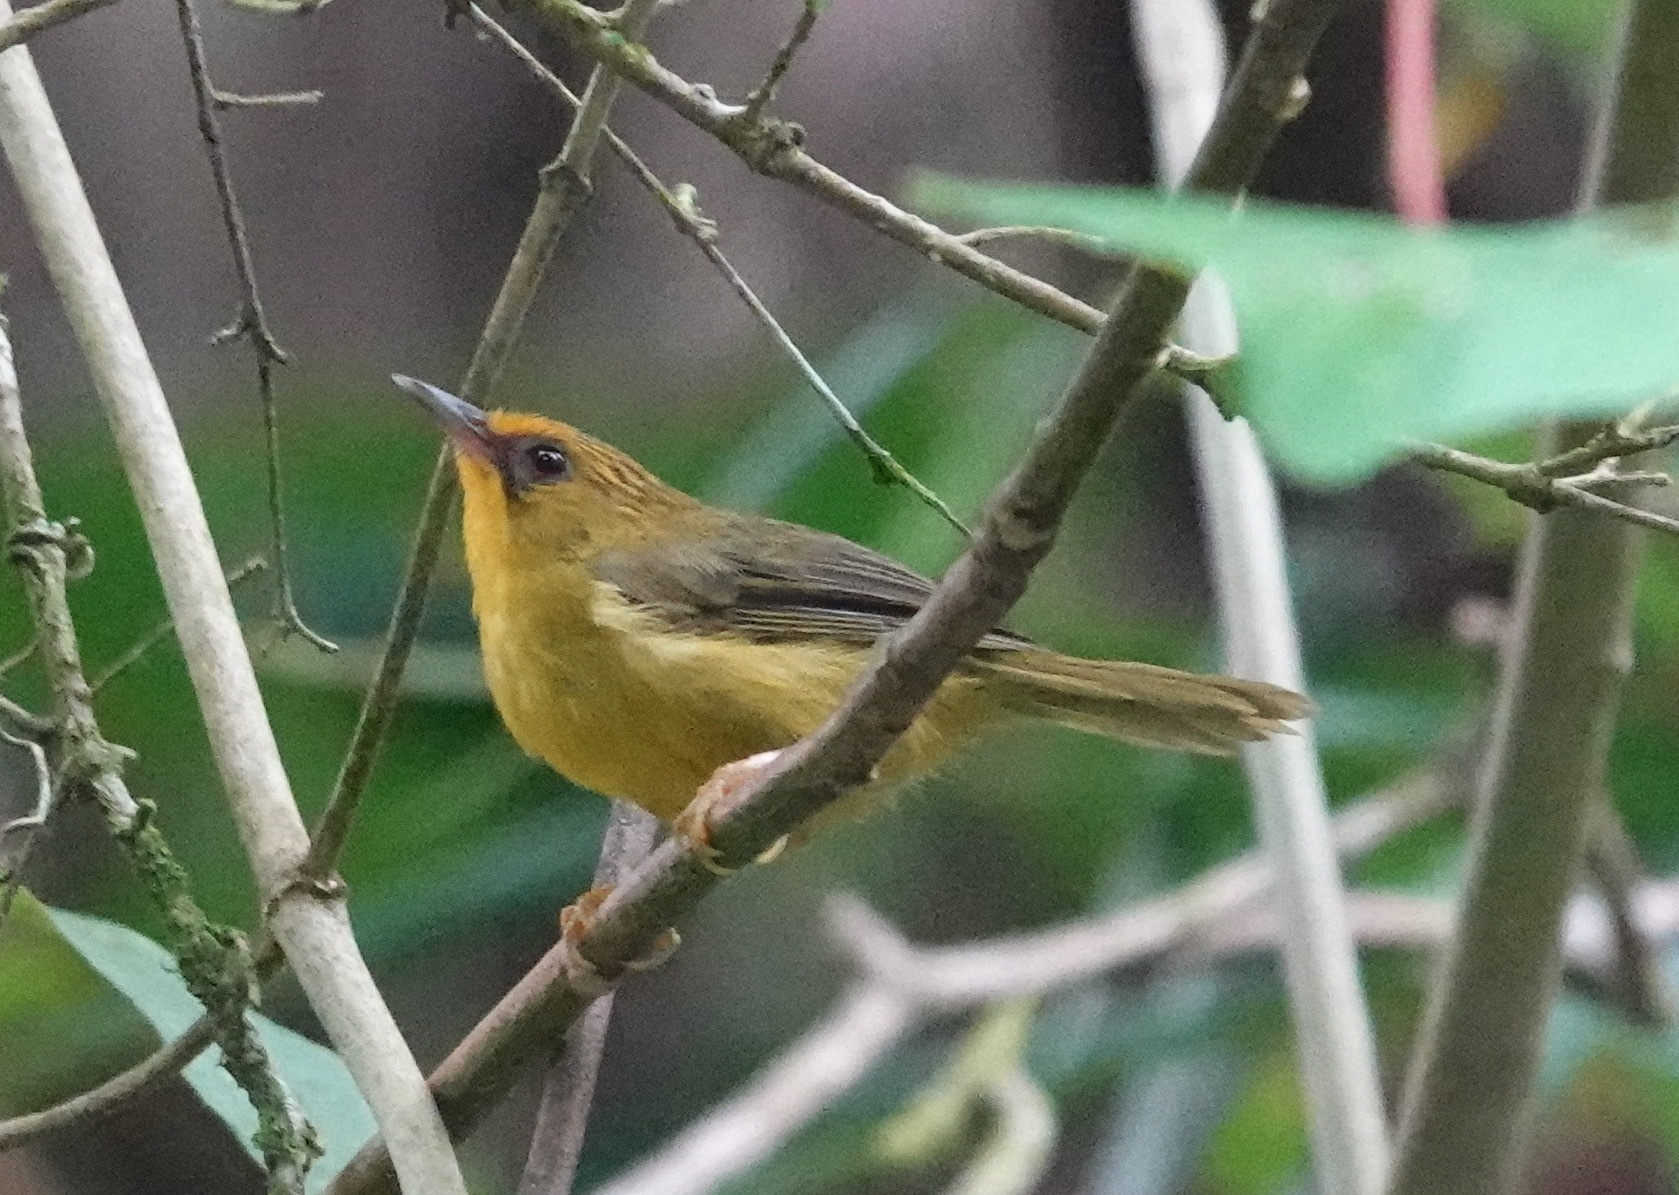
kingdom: Animalia
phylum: Chordata
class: Aves
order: Passeriformes
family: Timaliidae
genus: Stachyridopsis
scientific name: Stachyridopsis chrysaea
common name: Golden babbler
